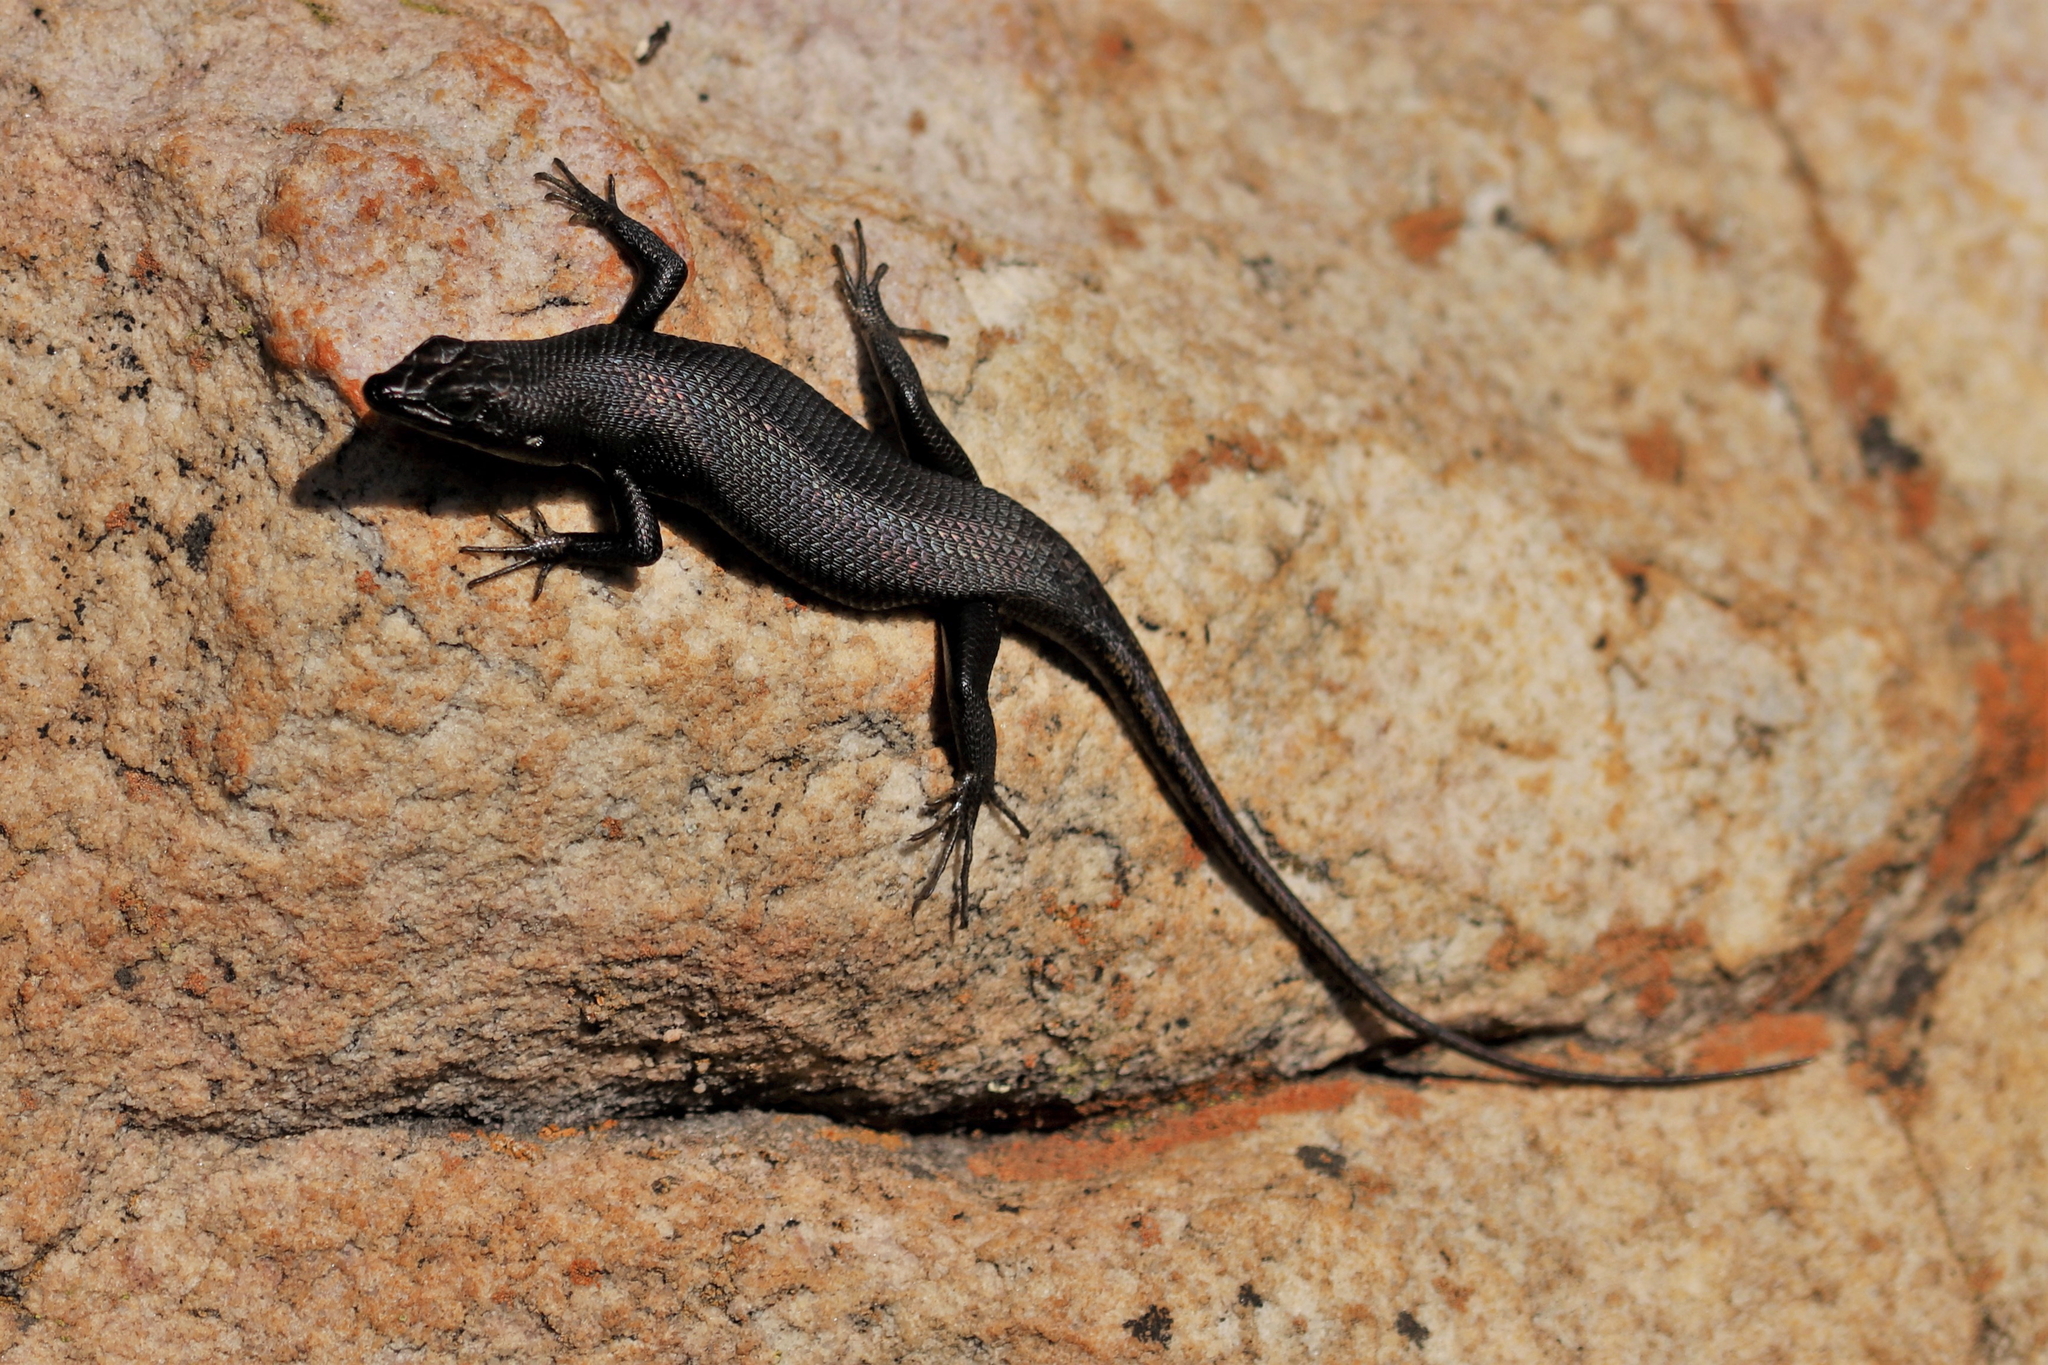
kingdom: Animalia
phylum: Chordata
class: Squamata
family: Scincidae
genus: Trachylepis
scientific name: Trachylepis sulcata
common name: Western rock skink
